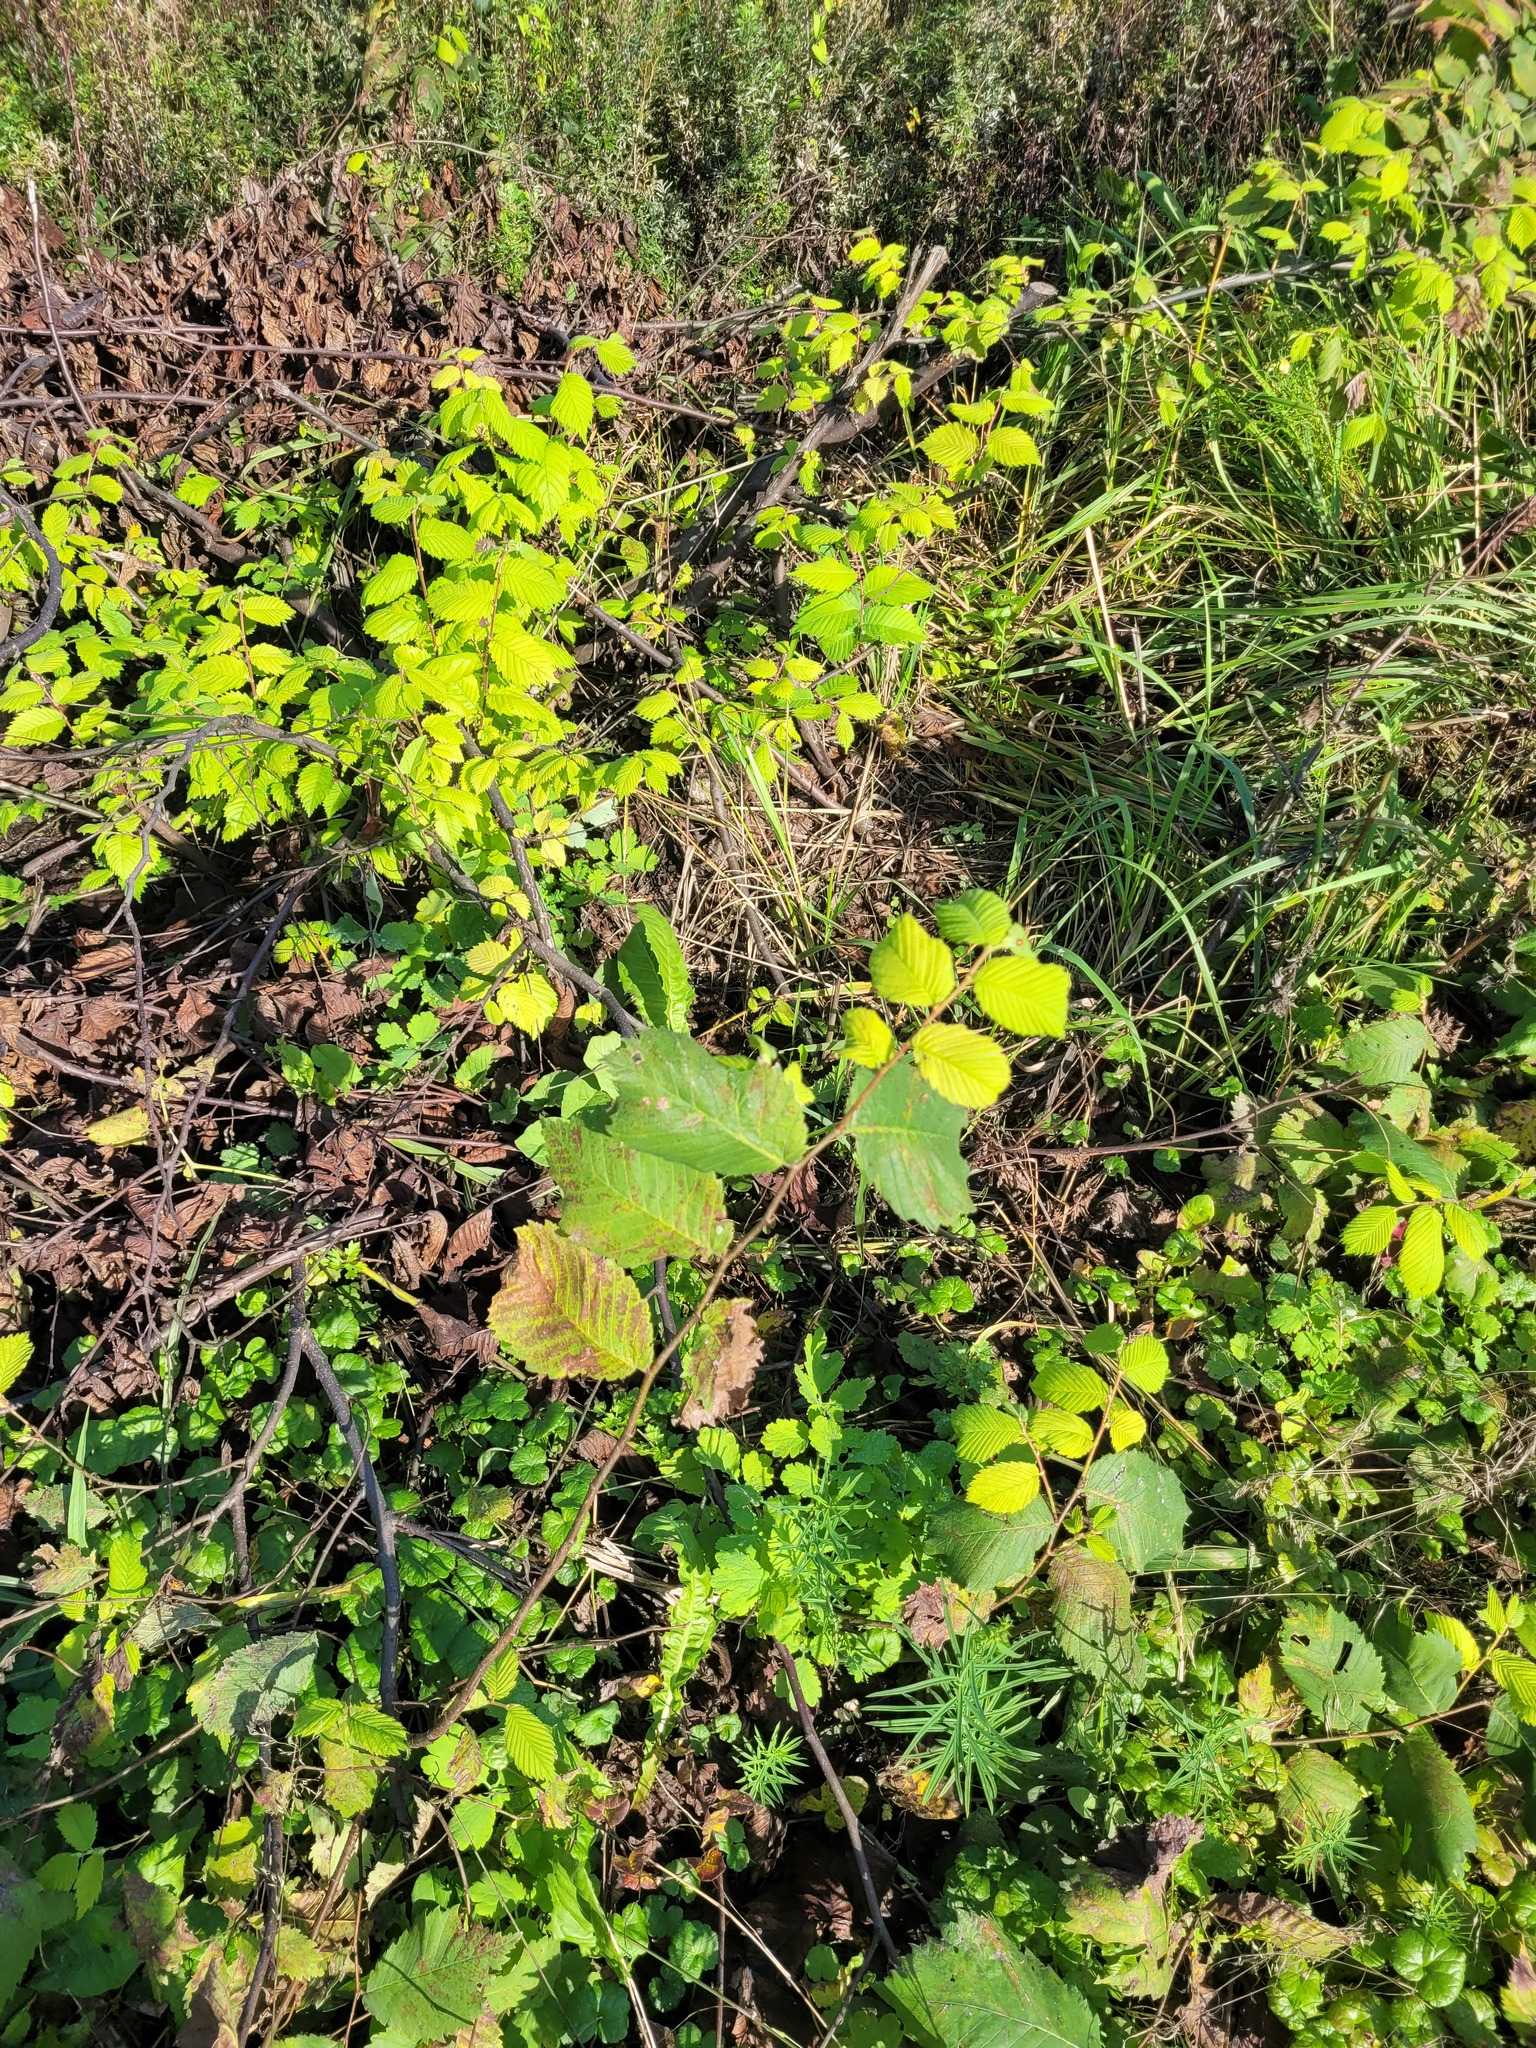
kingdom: Plantae
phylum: Tracheophyta
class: Magnoliopsida
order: Rosales
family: Ulmaceae
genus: Ulmus
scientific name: Ulmus laevis
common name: European white-elm
